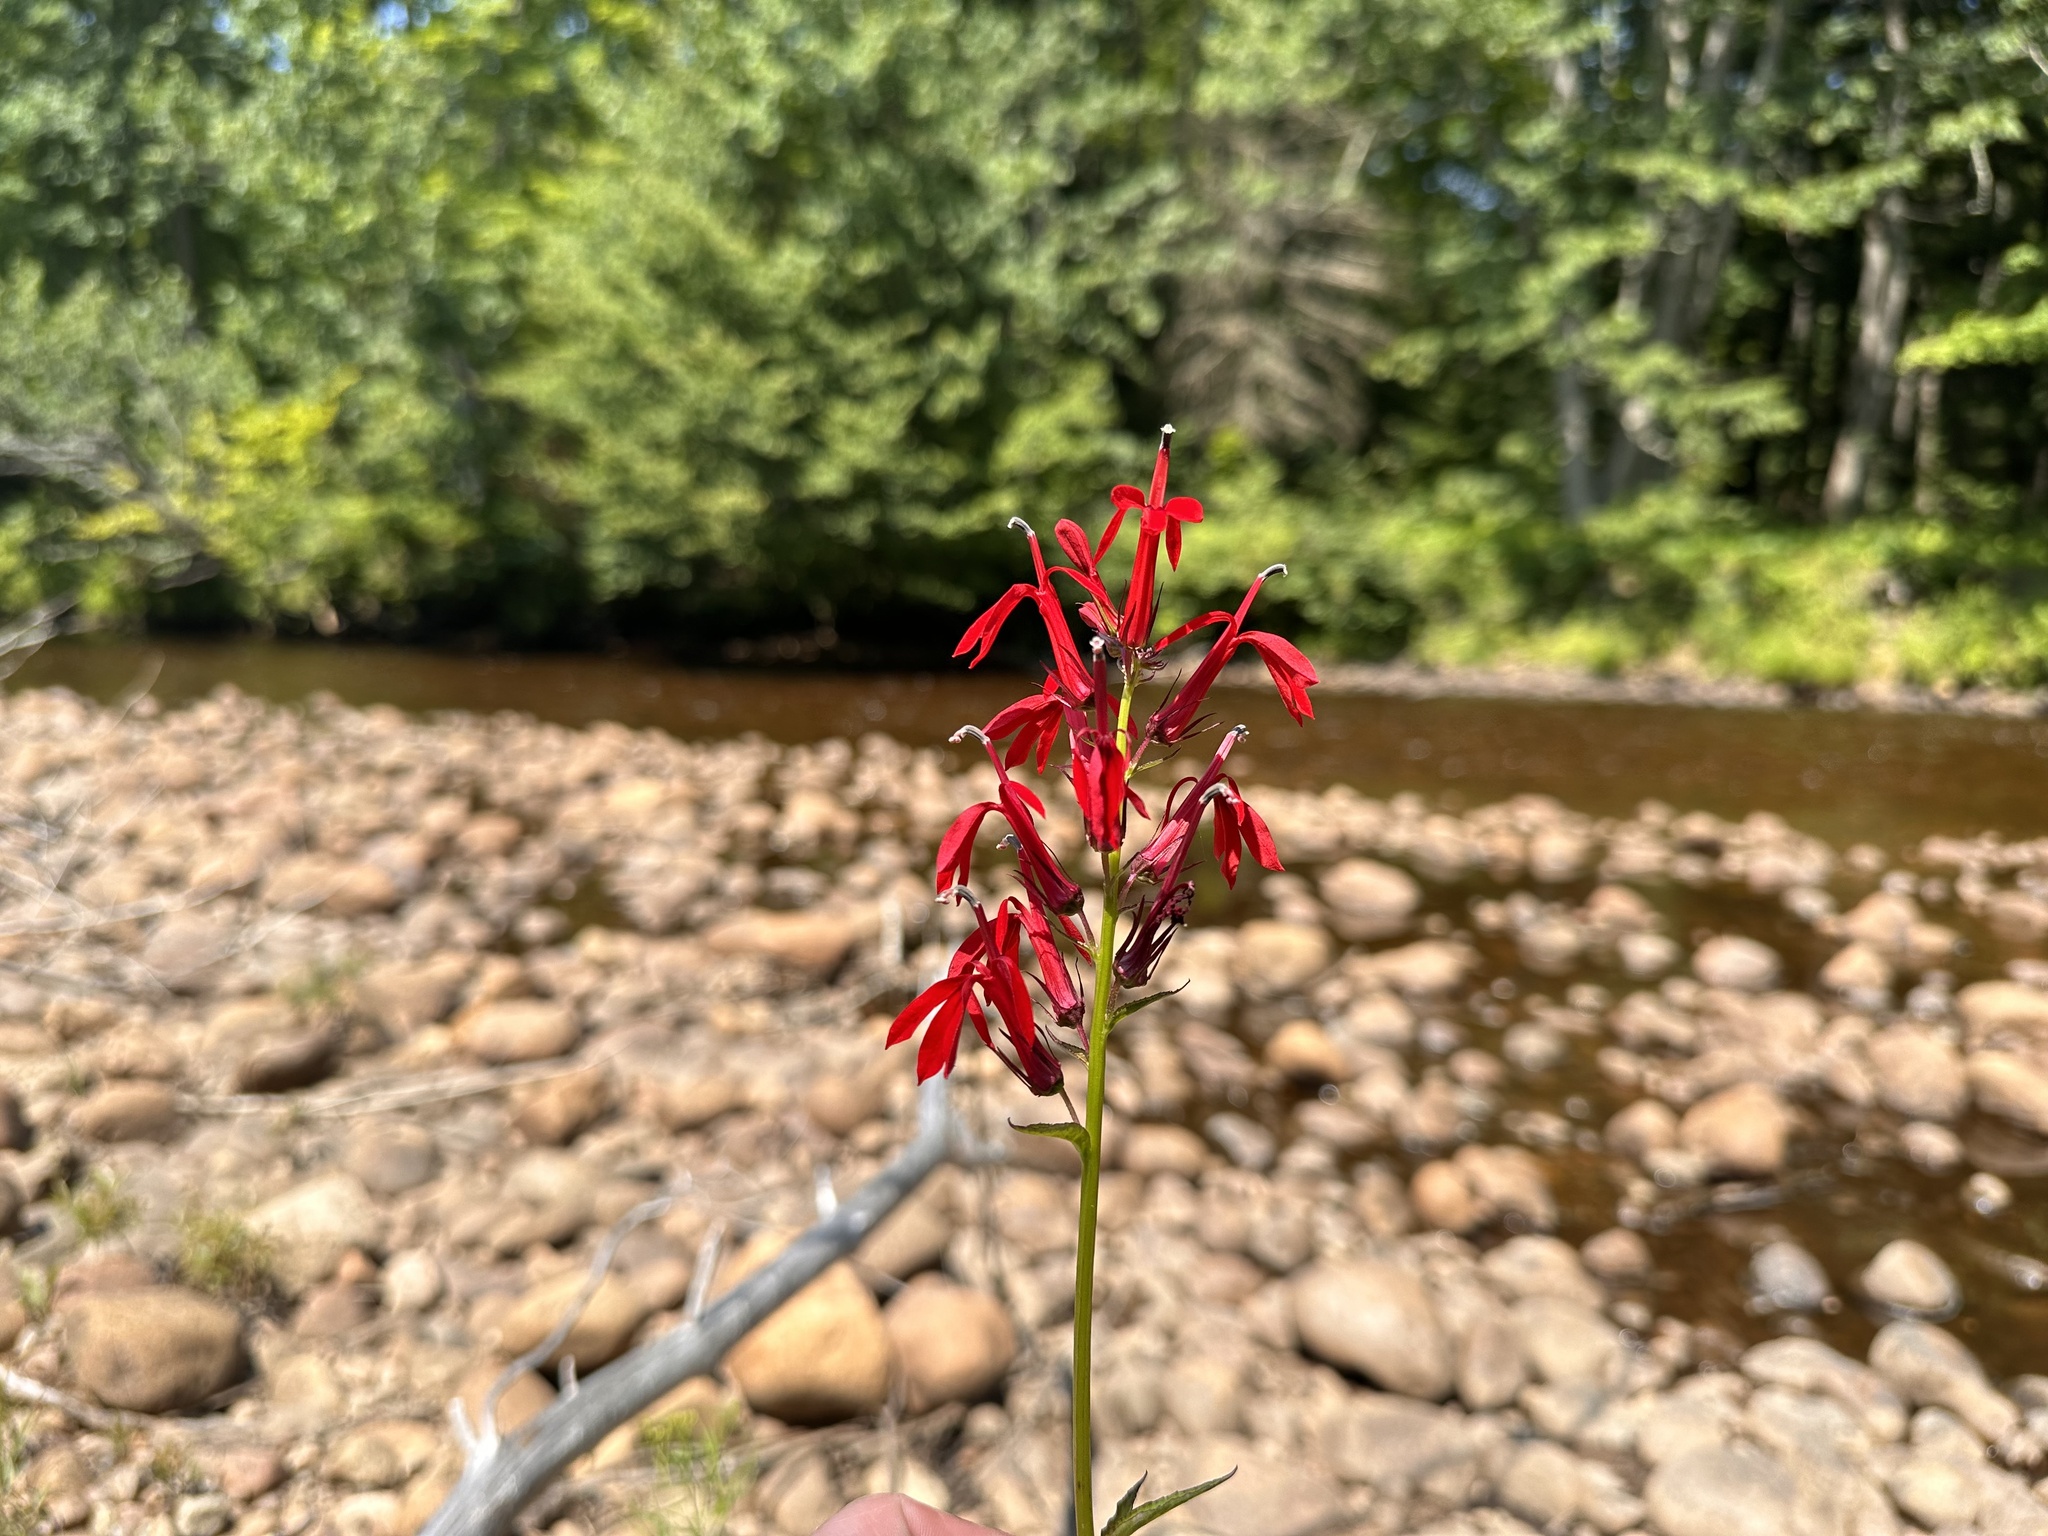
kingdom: Plantae
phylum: Tracheophyta
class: Magnoliopsida
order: Asterales
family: Campanulaceae
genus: Lobelia
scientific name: Lobelia cardinalis
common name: Cardinal flower
